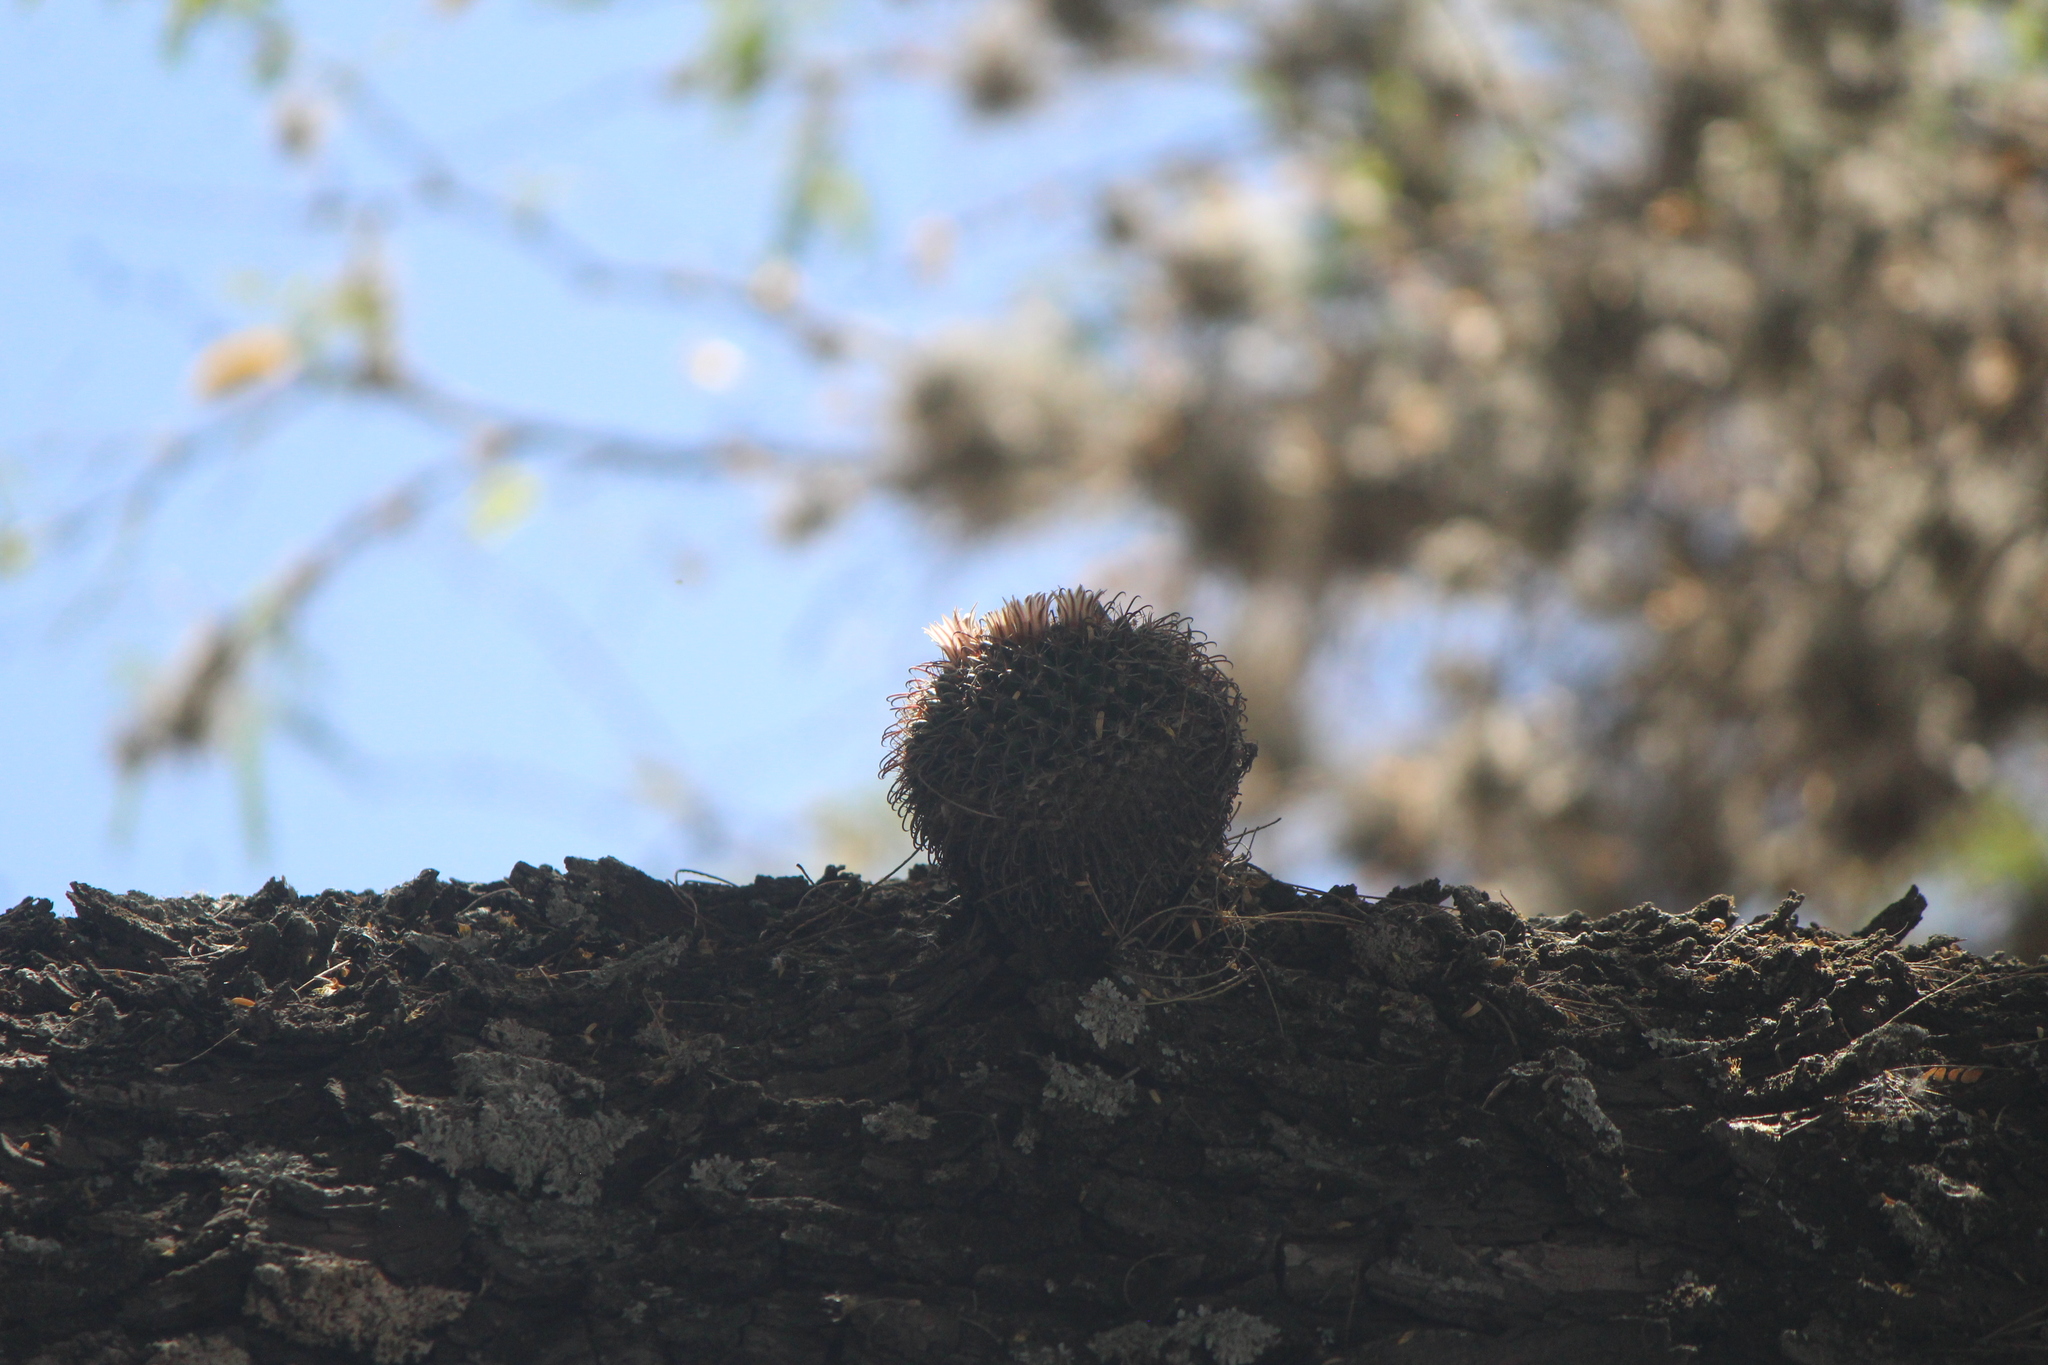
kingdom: Plantae
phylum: Tracheophyta
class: Magnoliopsida
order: Caryophyllales
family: Cactaceae
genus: Mammillaria
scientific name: Mammillaria uncinata
